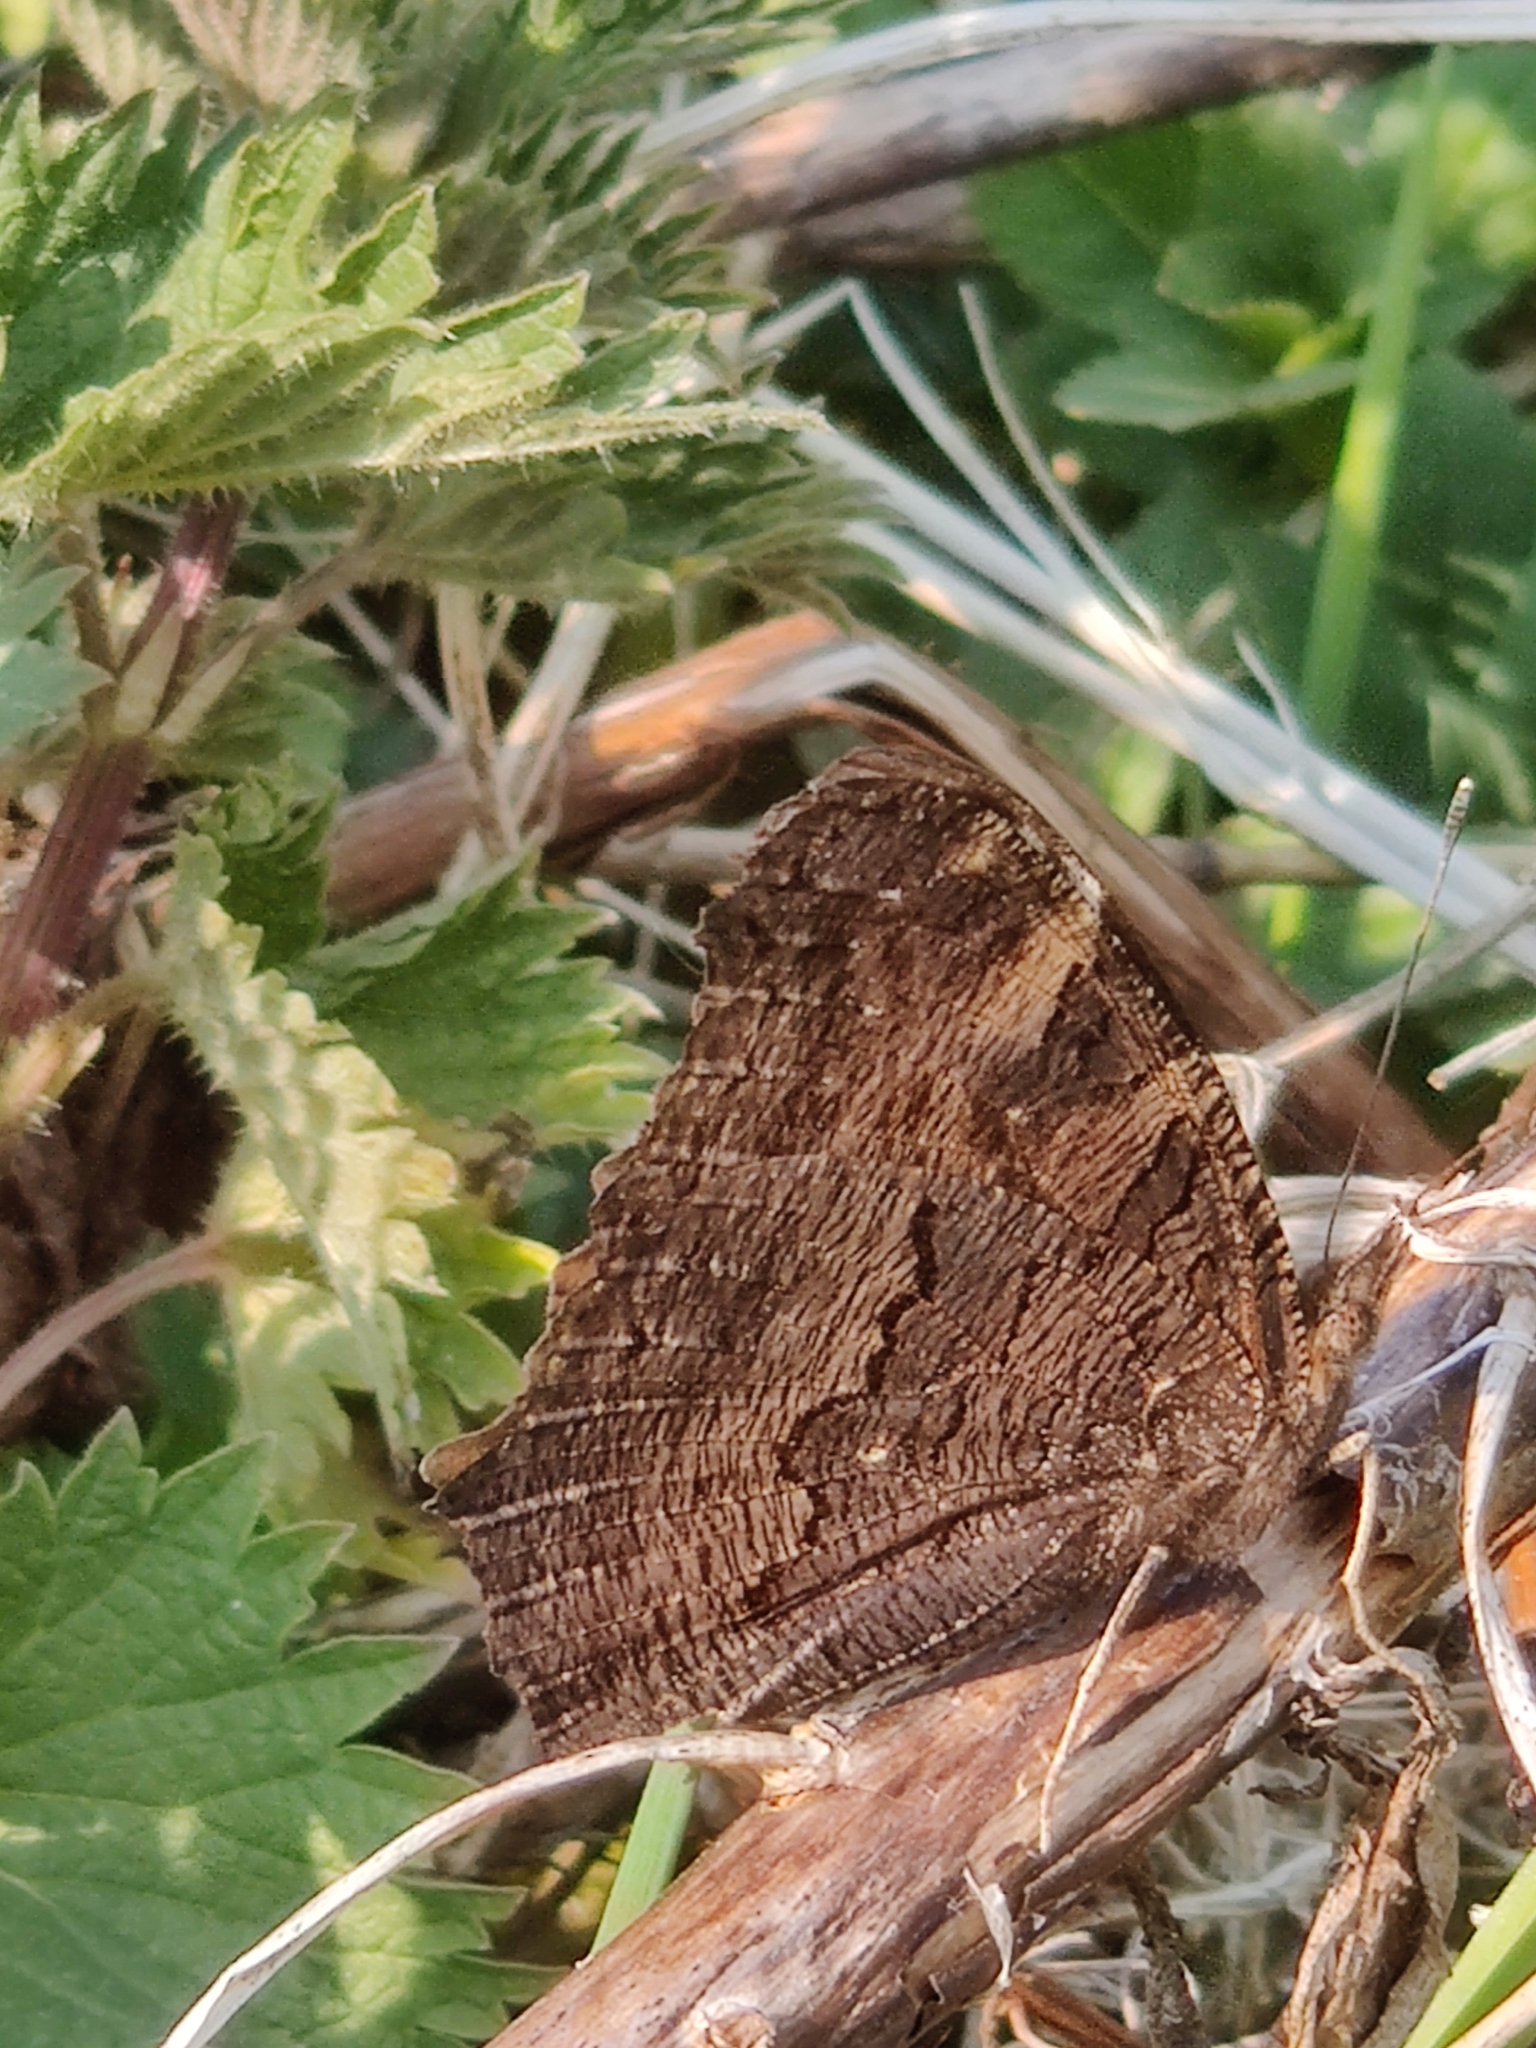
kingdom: Animalia
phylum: Arthropoda
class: Insecta
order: Lepidoptera
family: Nymphalidae
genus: Aglais
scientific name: Aglais io
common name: Peacock
